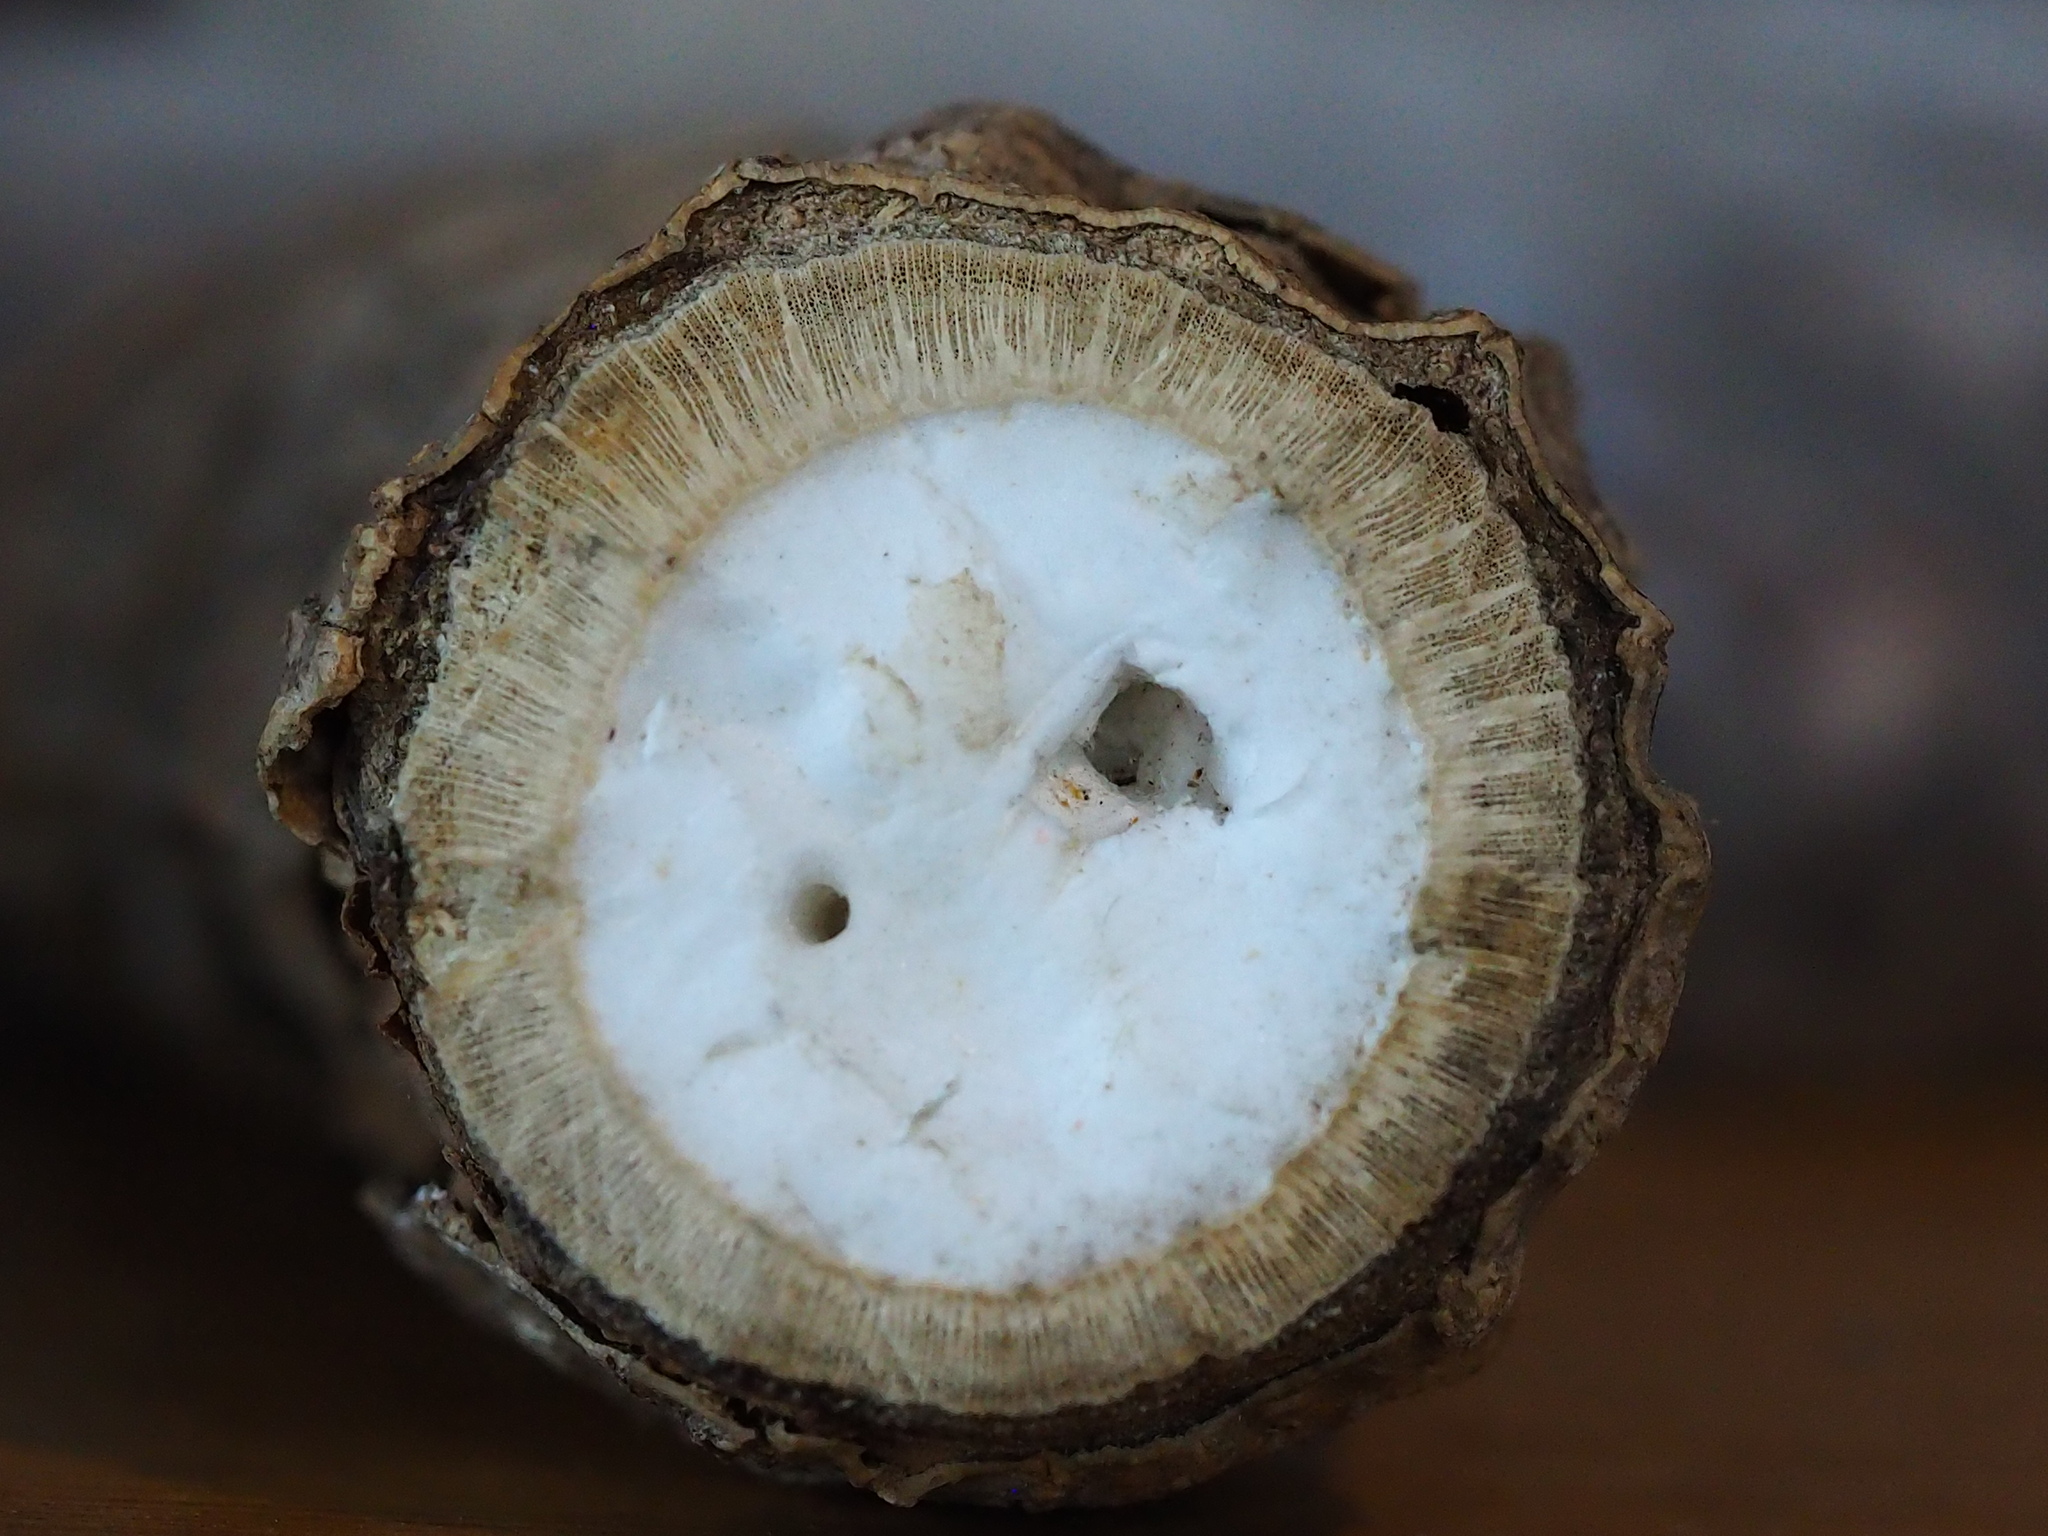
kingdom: Plantae
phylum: Tracheophyta
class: Magnoliopsida
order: Apiales
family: Araliaceae
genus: Tetrapanax
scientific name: Tetrapanax papyrifer
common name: Rice-paper plant
